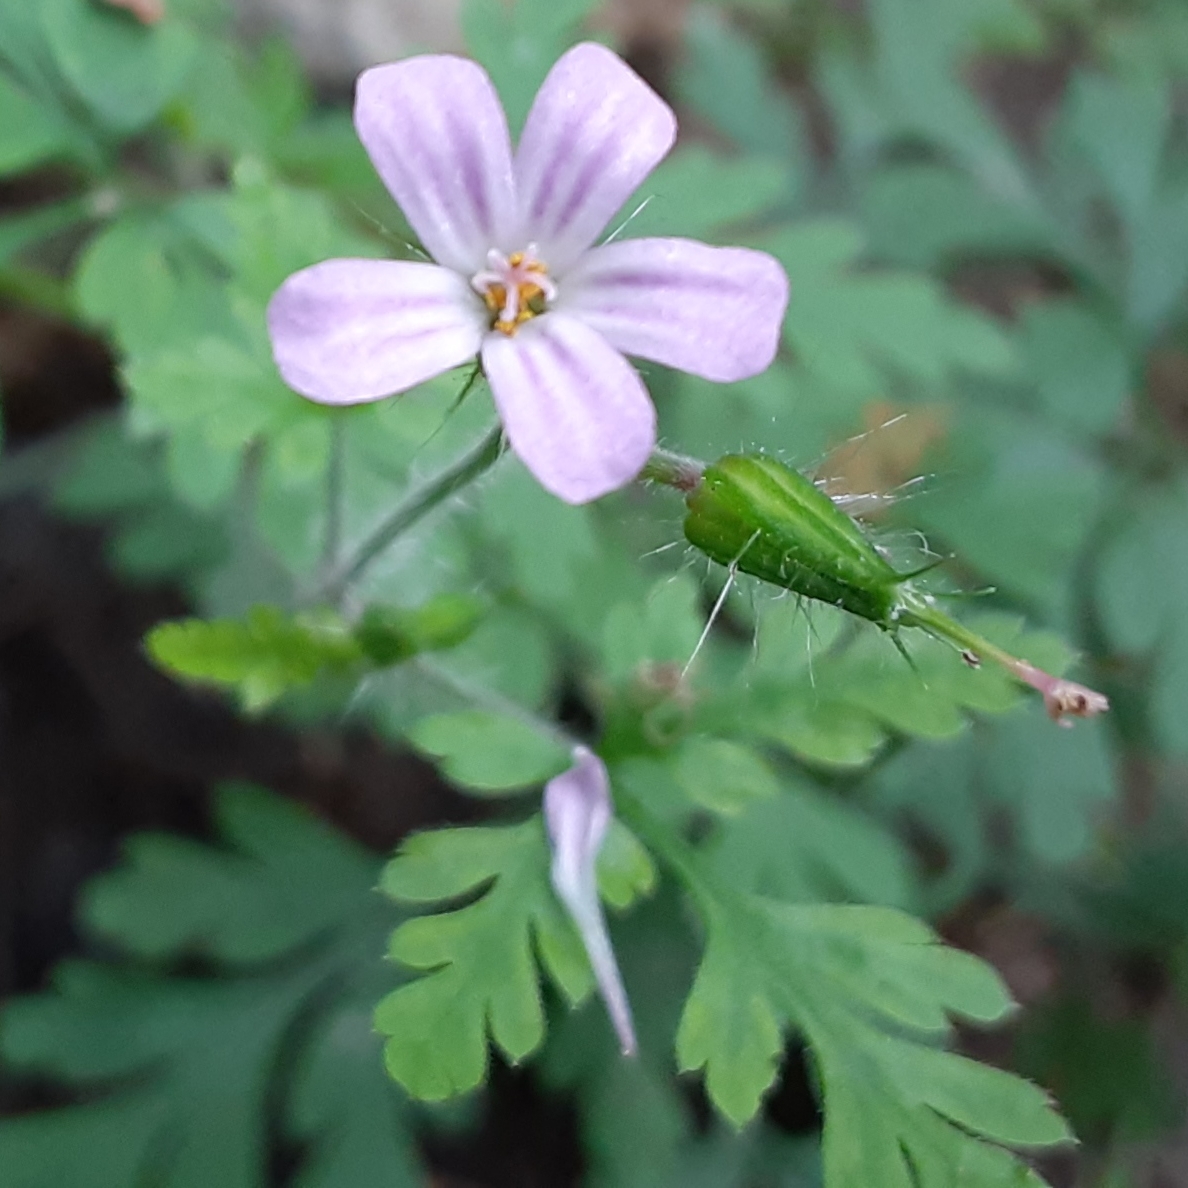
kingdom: Plantae
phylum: Tracheophyta
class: Magnoliopsida
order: Geraniales
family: Geraniaceae
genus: Geranium
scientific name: Geranium robertianum
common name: Herb-robert
